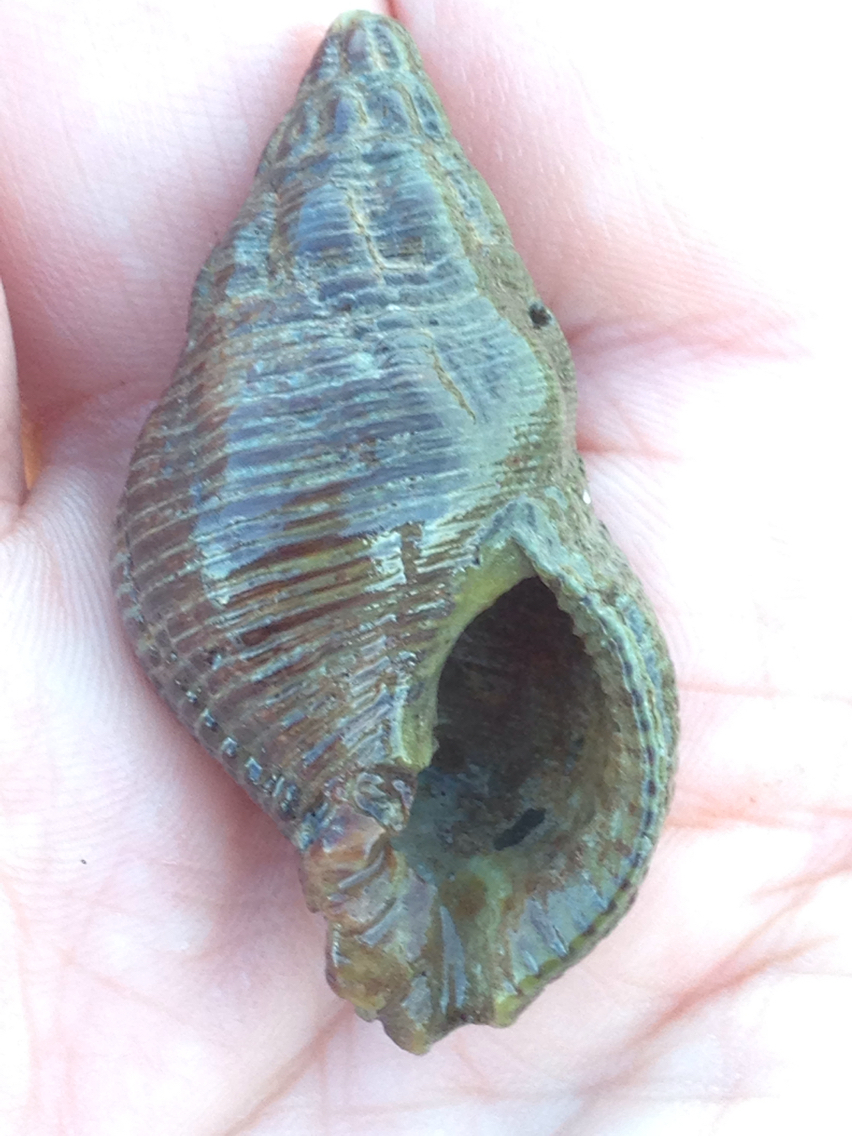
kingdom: Animalia
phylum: Mollusca
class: Gastropoda
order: Neogastropoda
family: Tudiclidae
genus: Lirabuccinum
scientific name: Lirabuccinum dirum
